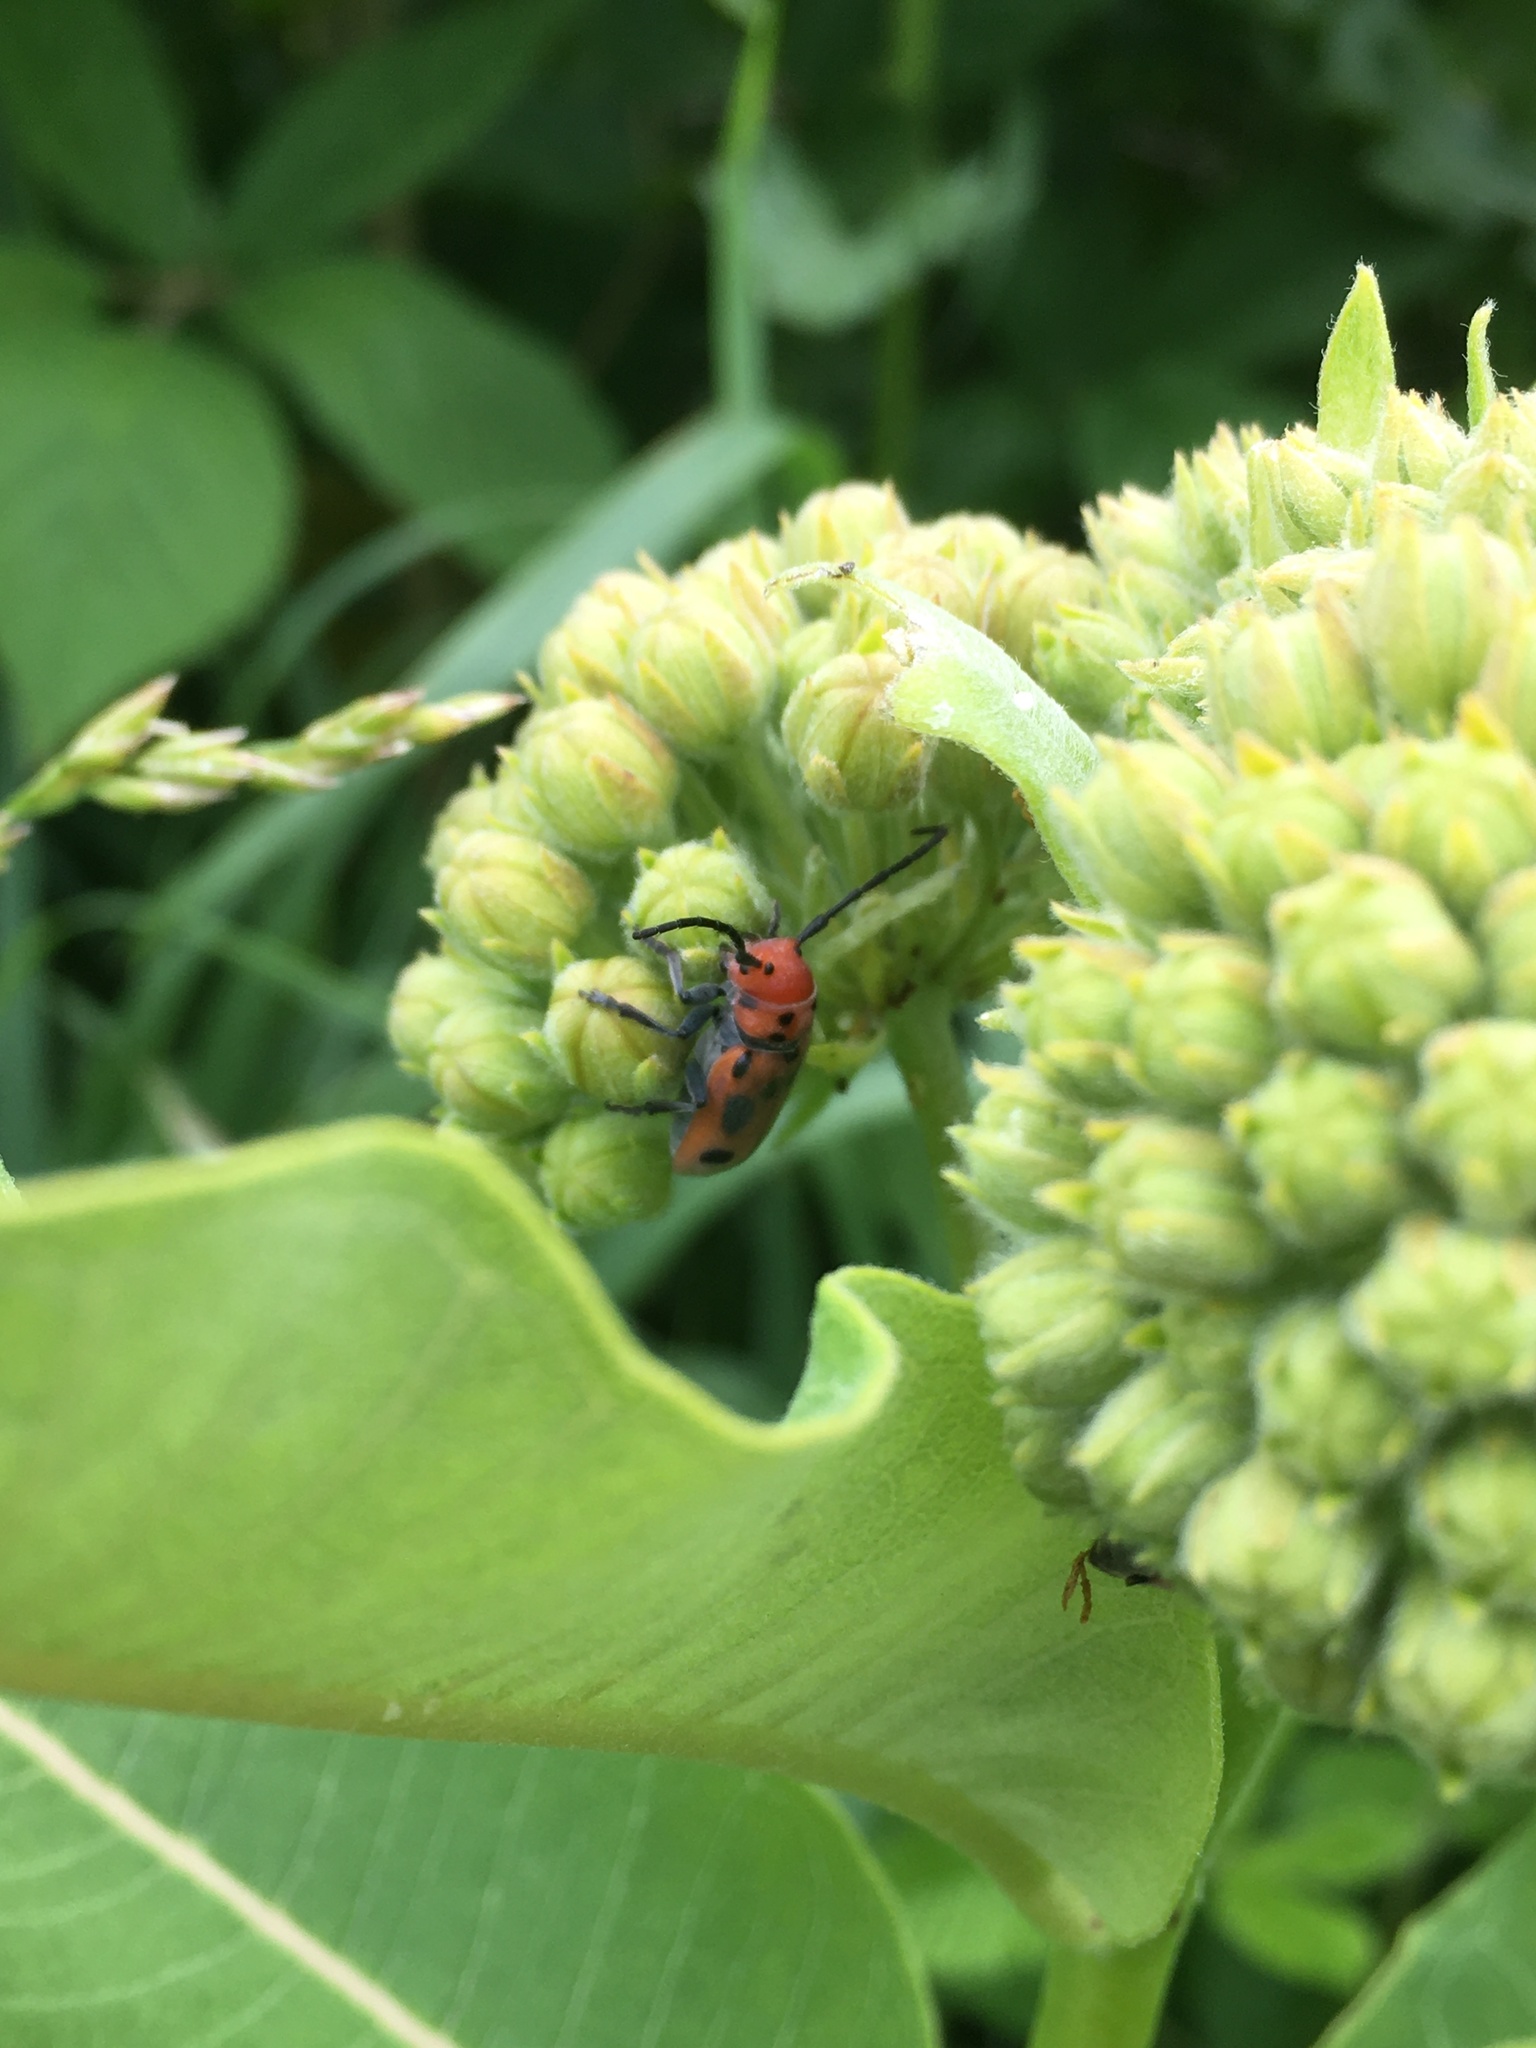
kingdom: Animalia
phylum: Arthropoda
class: Insecta
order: Coleoptera
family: Cerambycidae
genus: Tetraopes
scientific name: Tetraopes tetrophthalmus
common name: Red milkweed beetle
